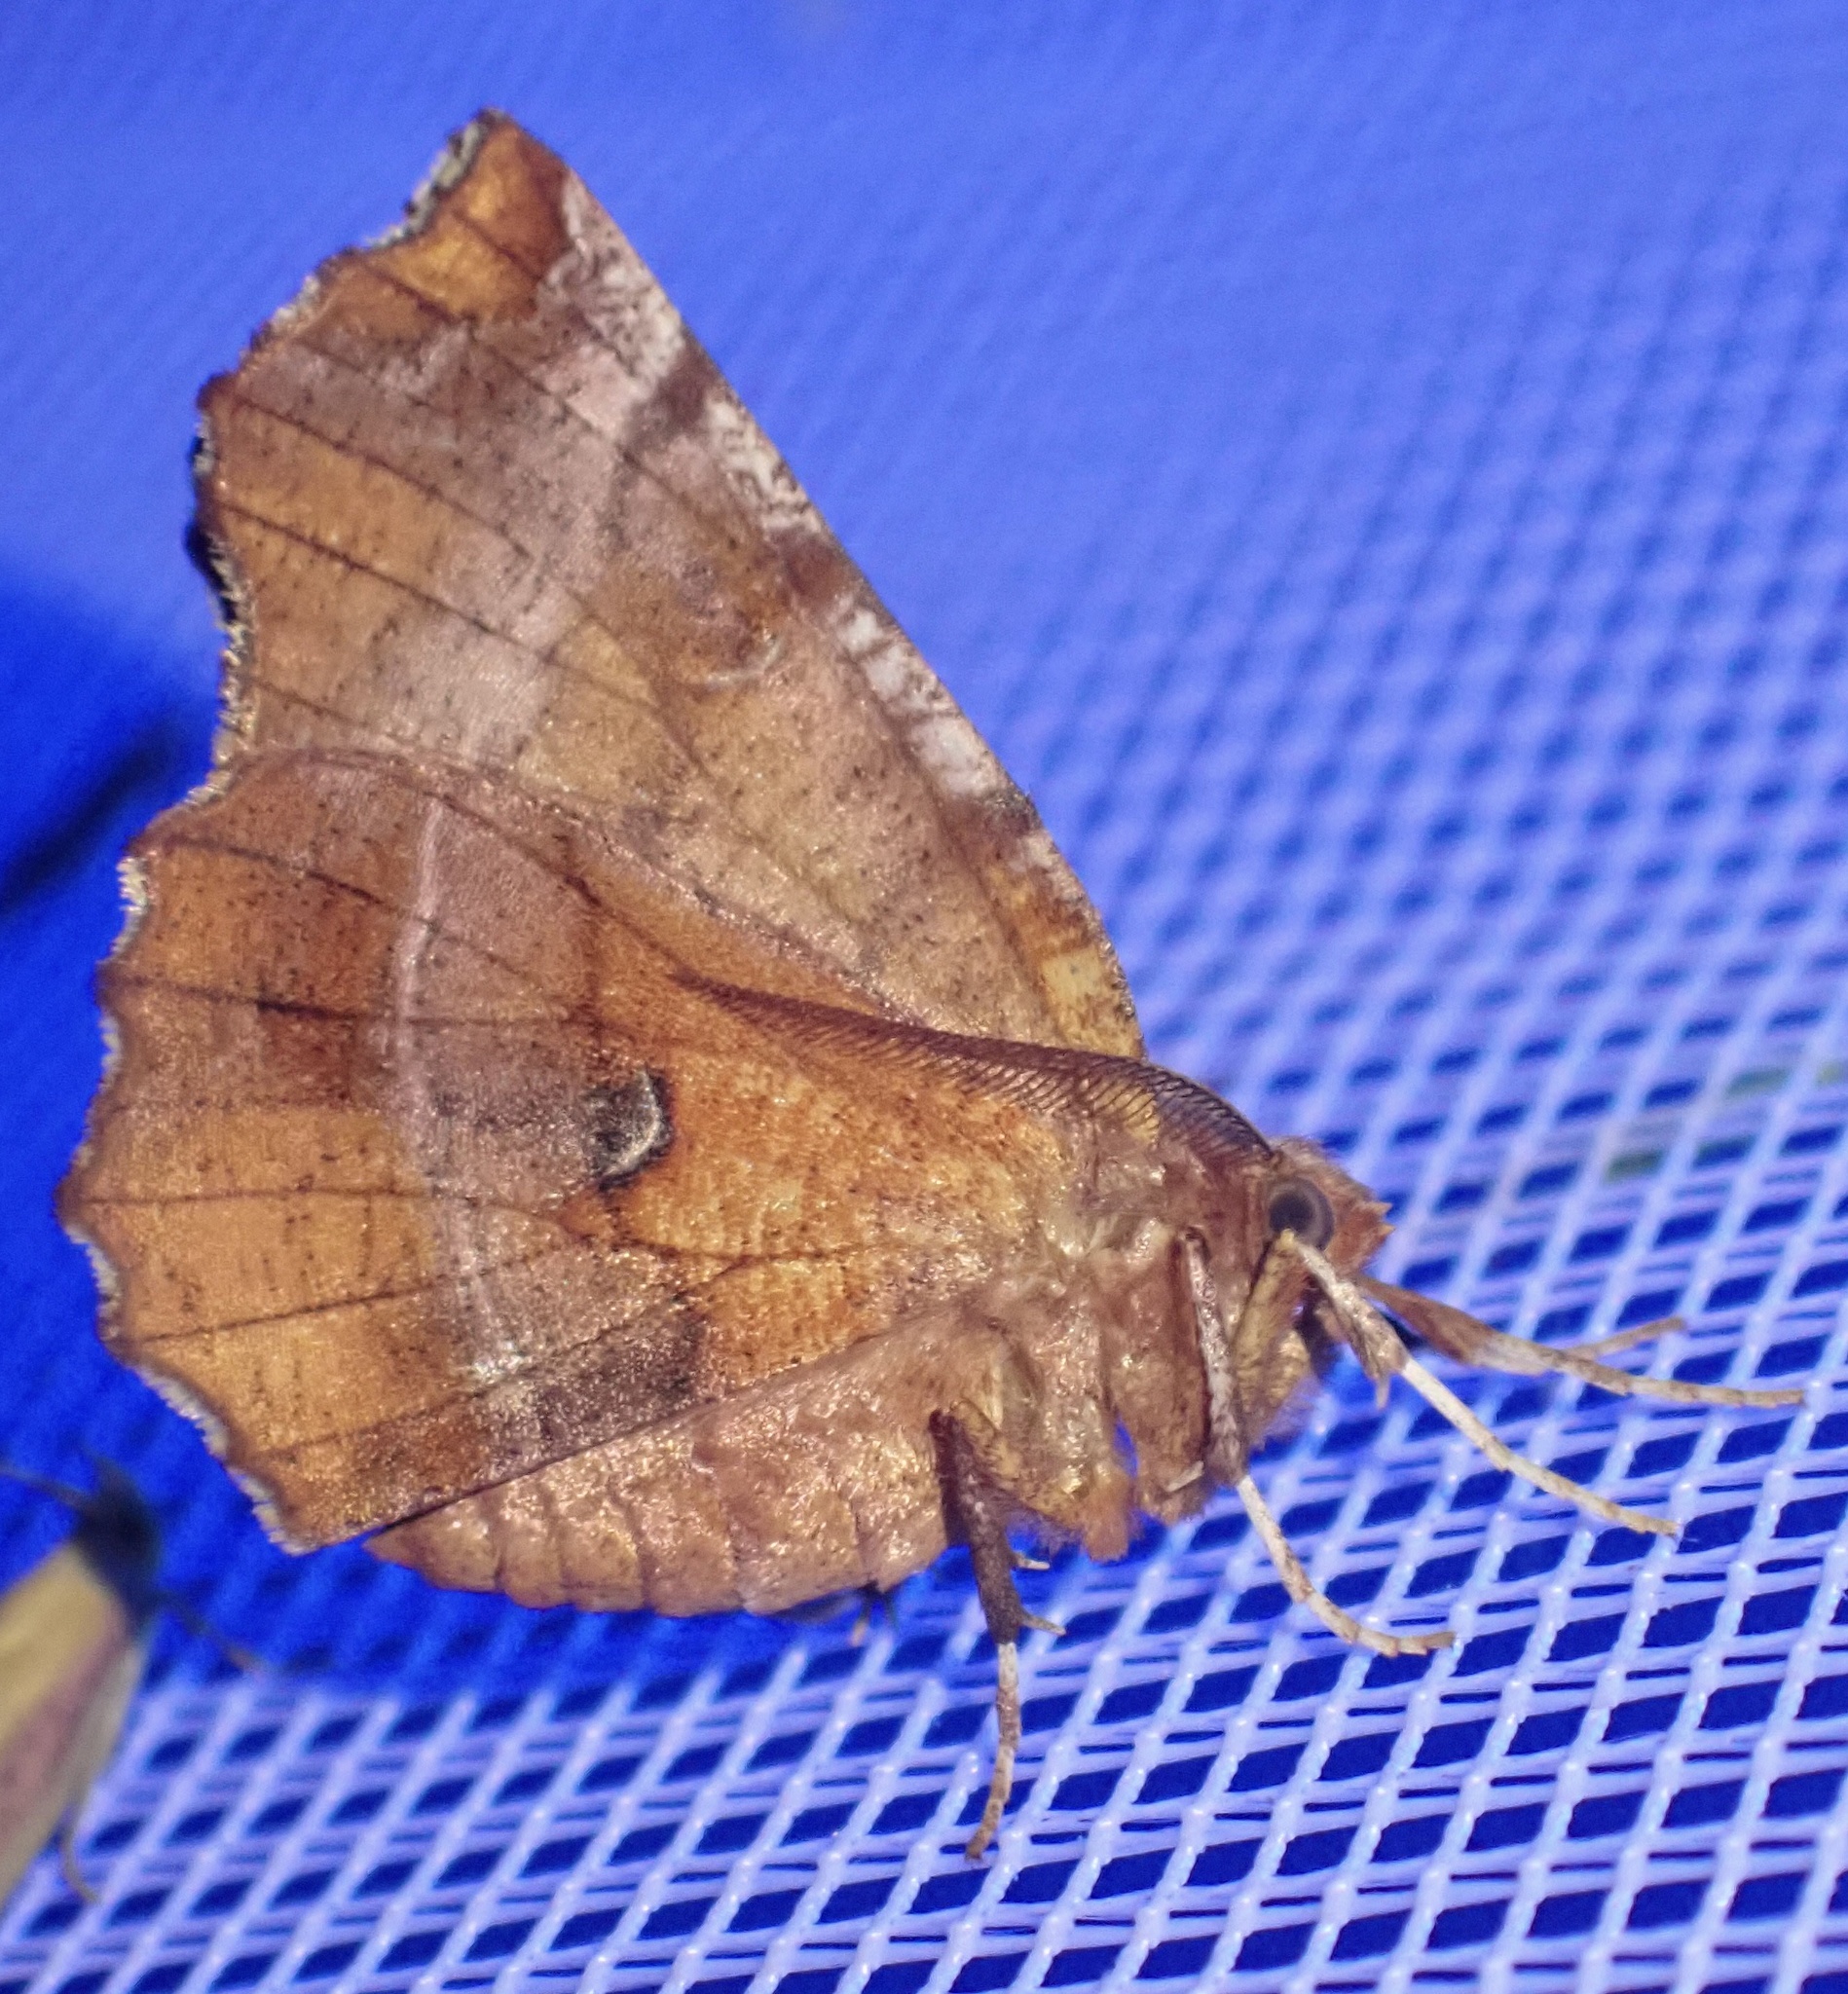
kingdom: Animalia
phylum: Arthropoda
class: Insecta
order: Lepidoptera
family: Geometridae
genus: Selenia
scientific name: Selenia dentaria
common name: Early thorn
